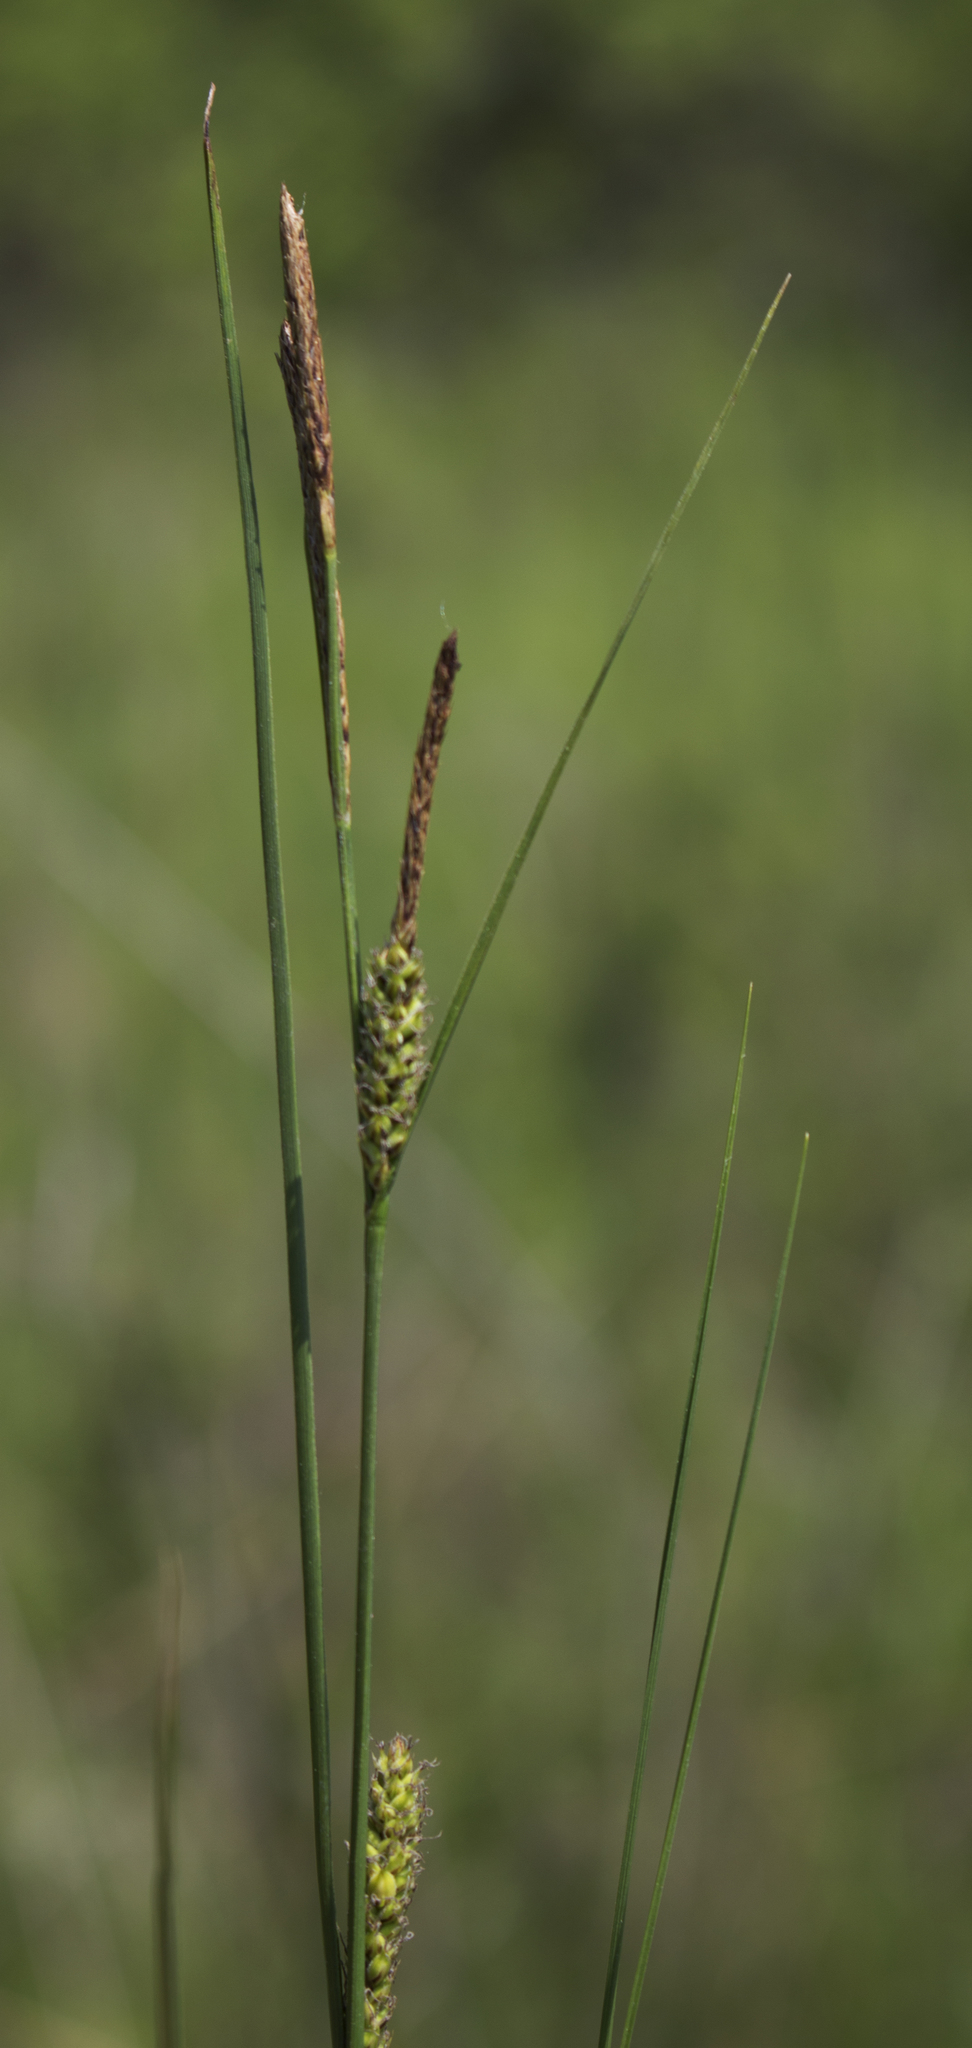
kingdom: Plantae
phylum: Tracheophyta
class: Liliopsida
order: Poales
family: Cyperaceae
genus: Carex
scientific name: Carex pellita
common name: Woolly sedge
